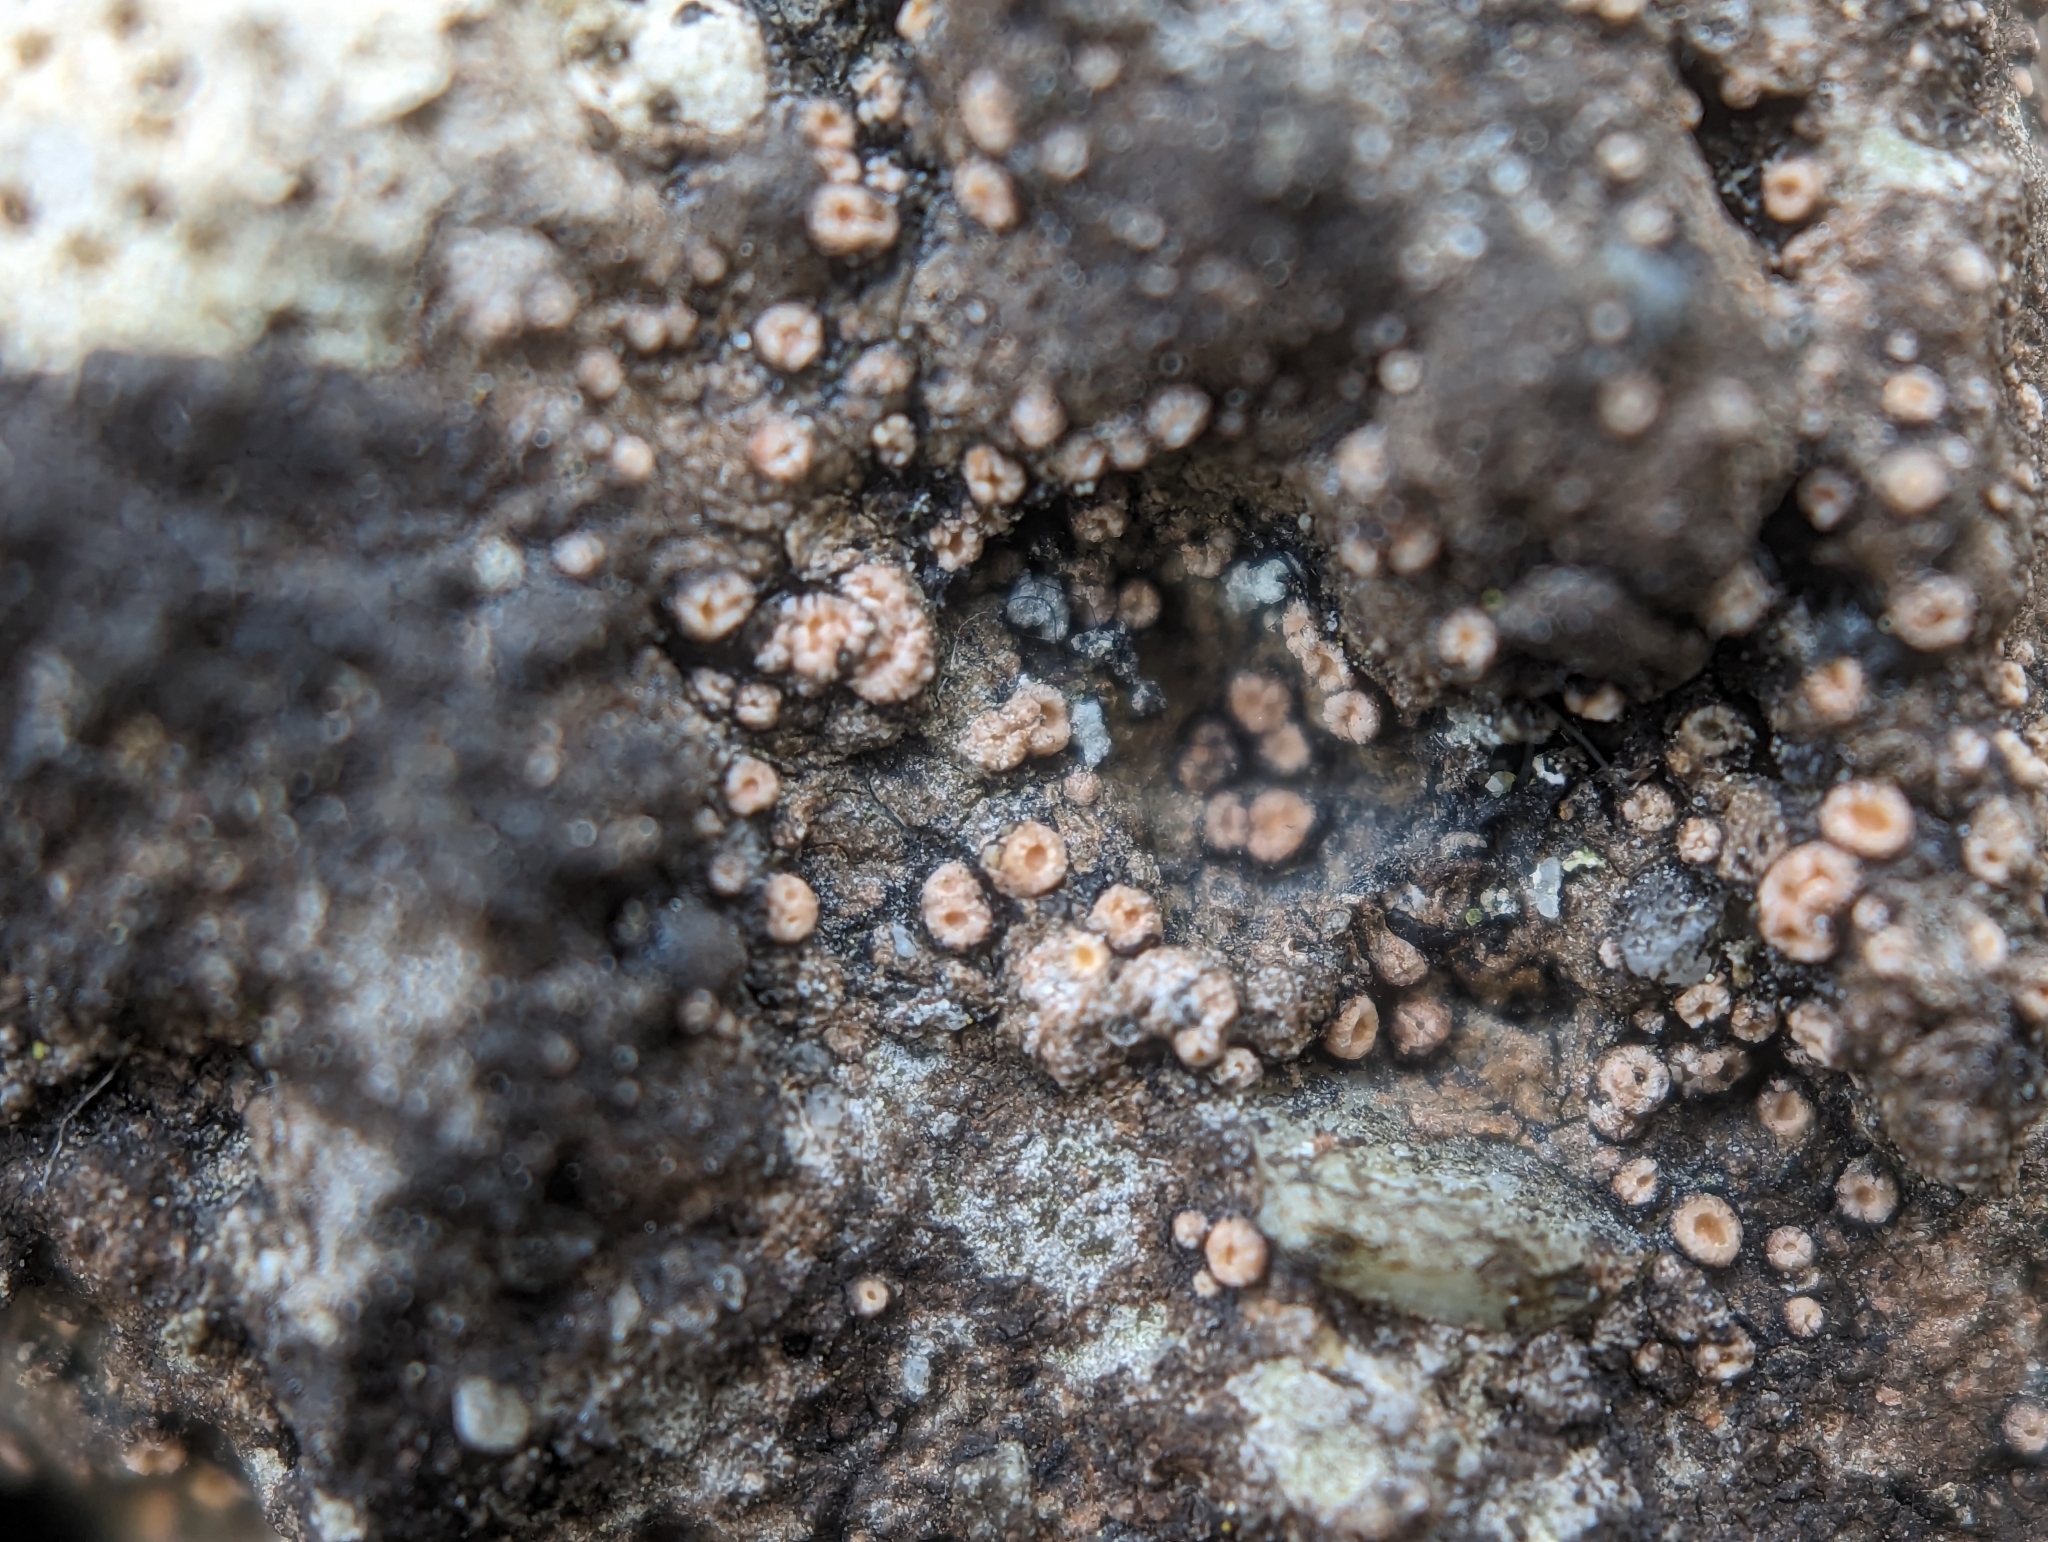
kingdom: Fungi
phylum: Ascomycota
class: Lecanoromycetes
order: Gyalectales
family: Gyalectaceae
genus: Gyalecta
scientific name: Gyalecta jenensis
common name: Rock dimple lichen
